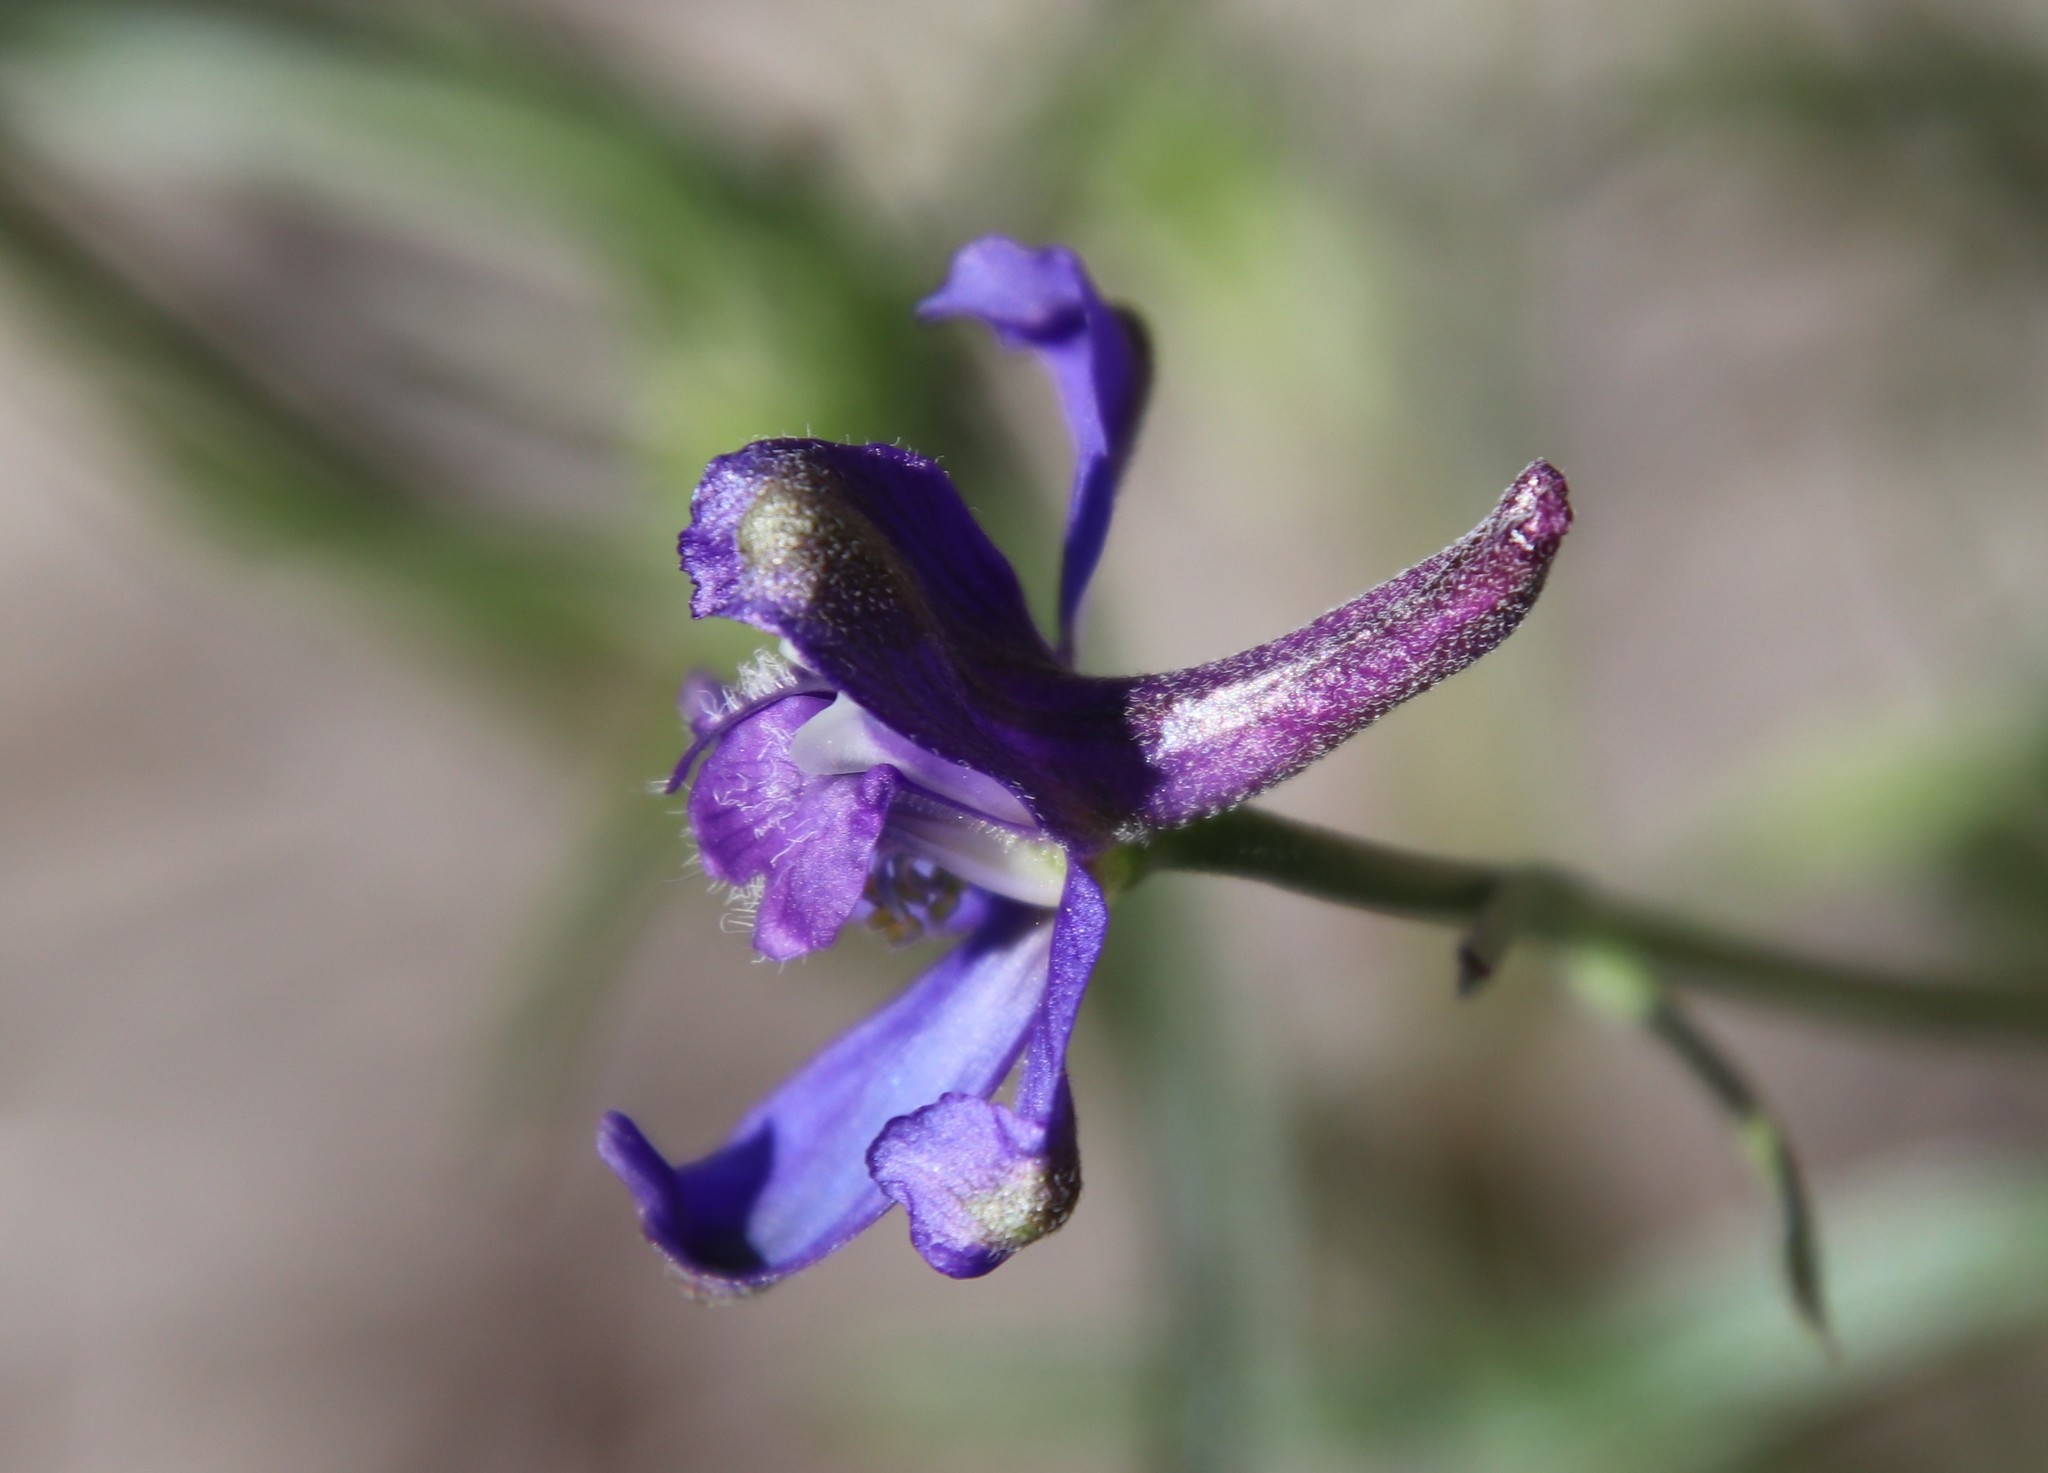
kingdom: Plantae
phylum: Tracheophyta
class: Magnoliopsida
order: Ranunculales
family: Ranunculaceae
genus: Delphinium
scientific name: Delphinium patens
